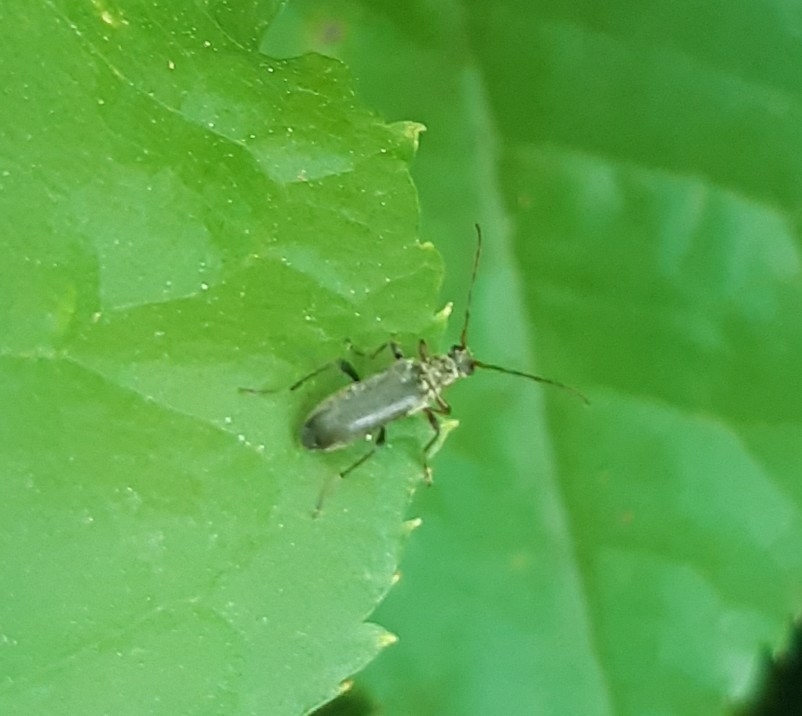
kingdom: Animalia
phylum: Arthropoda
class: Insecta
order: Coleoptera
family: Cerambycidae
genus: Grammoptera
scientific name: Grammoptera ruficornis
